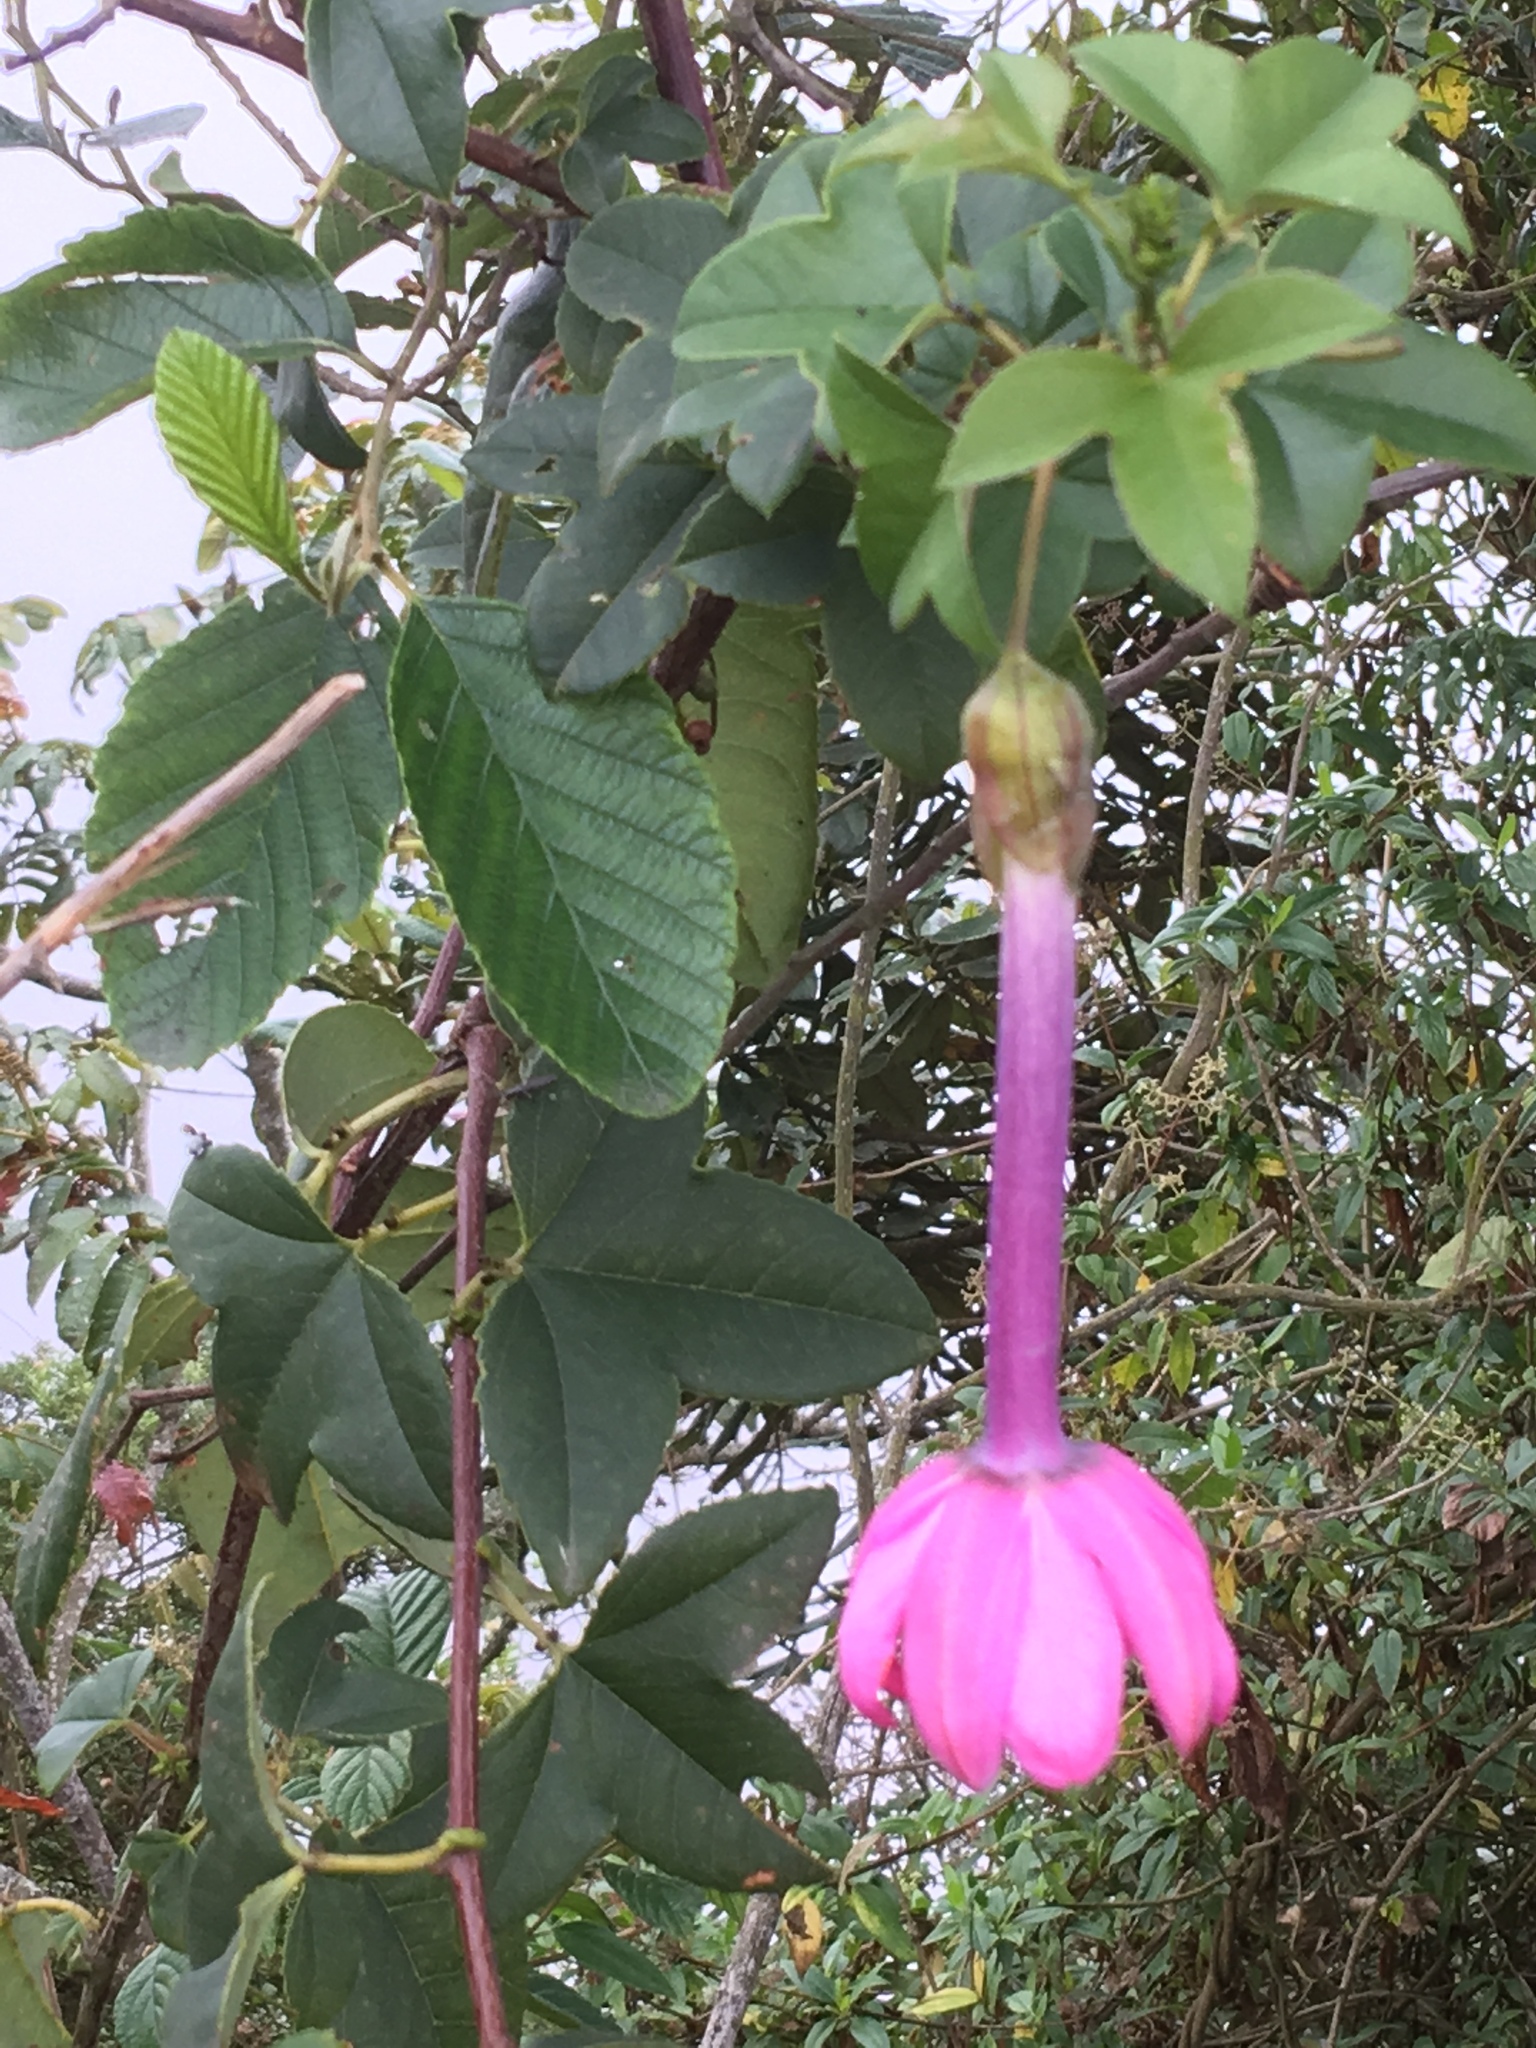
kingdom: Plantae
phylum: Tracheophyta
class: Magnoliopsida
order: Malpighiales
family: Passifloraceae
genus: Passiflora
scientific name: Passiflora cumbalensis
